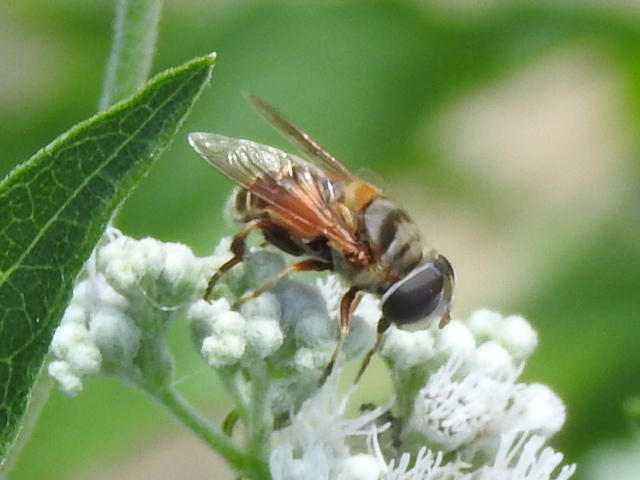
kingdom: Animalia
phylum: Arthropoda
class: Insecta
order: Diptera
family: Syrphidae
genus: Palpada
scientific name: Palpada vinetorum
